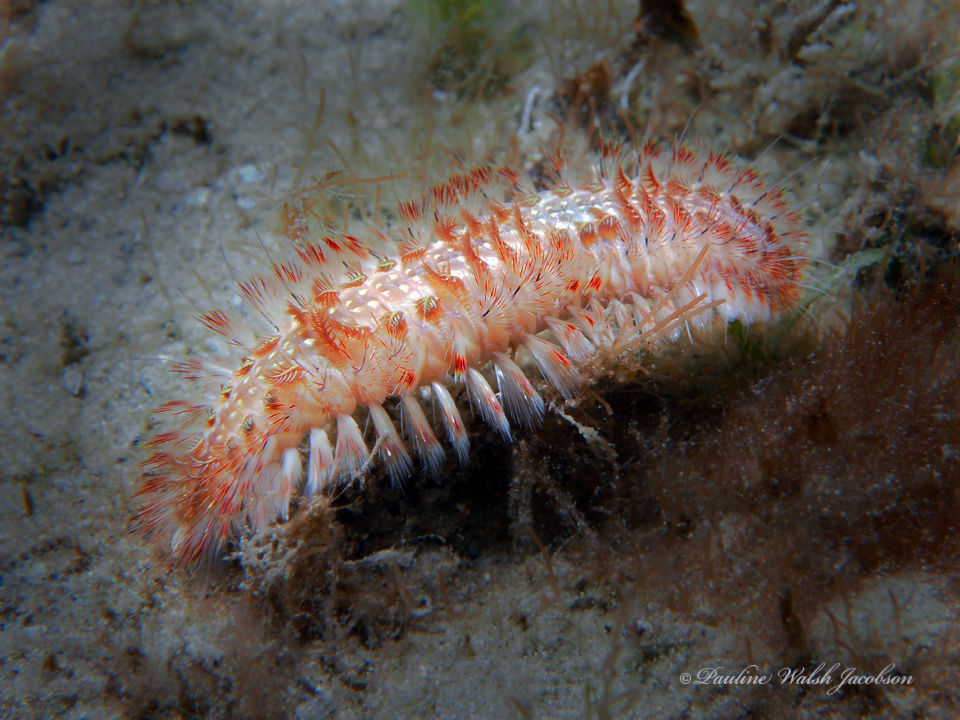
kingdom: Animalia
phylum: Annelida
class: Polychaeta
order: Amphinomida
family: Amphinomidae
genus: Chloeia
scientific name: Chloeia euglochis
